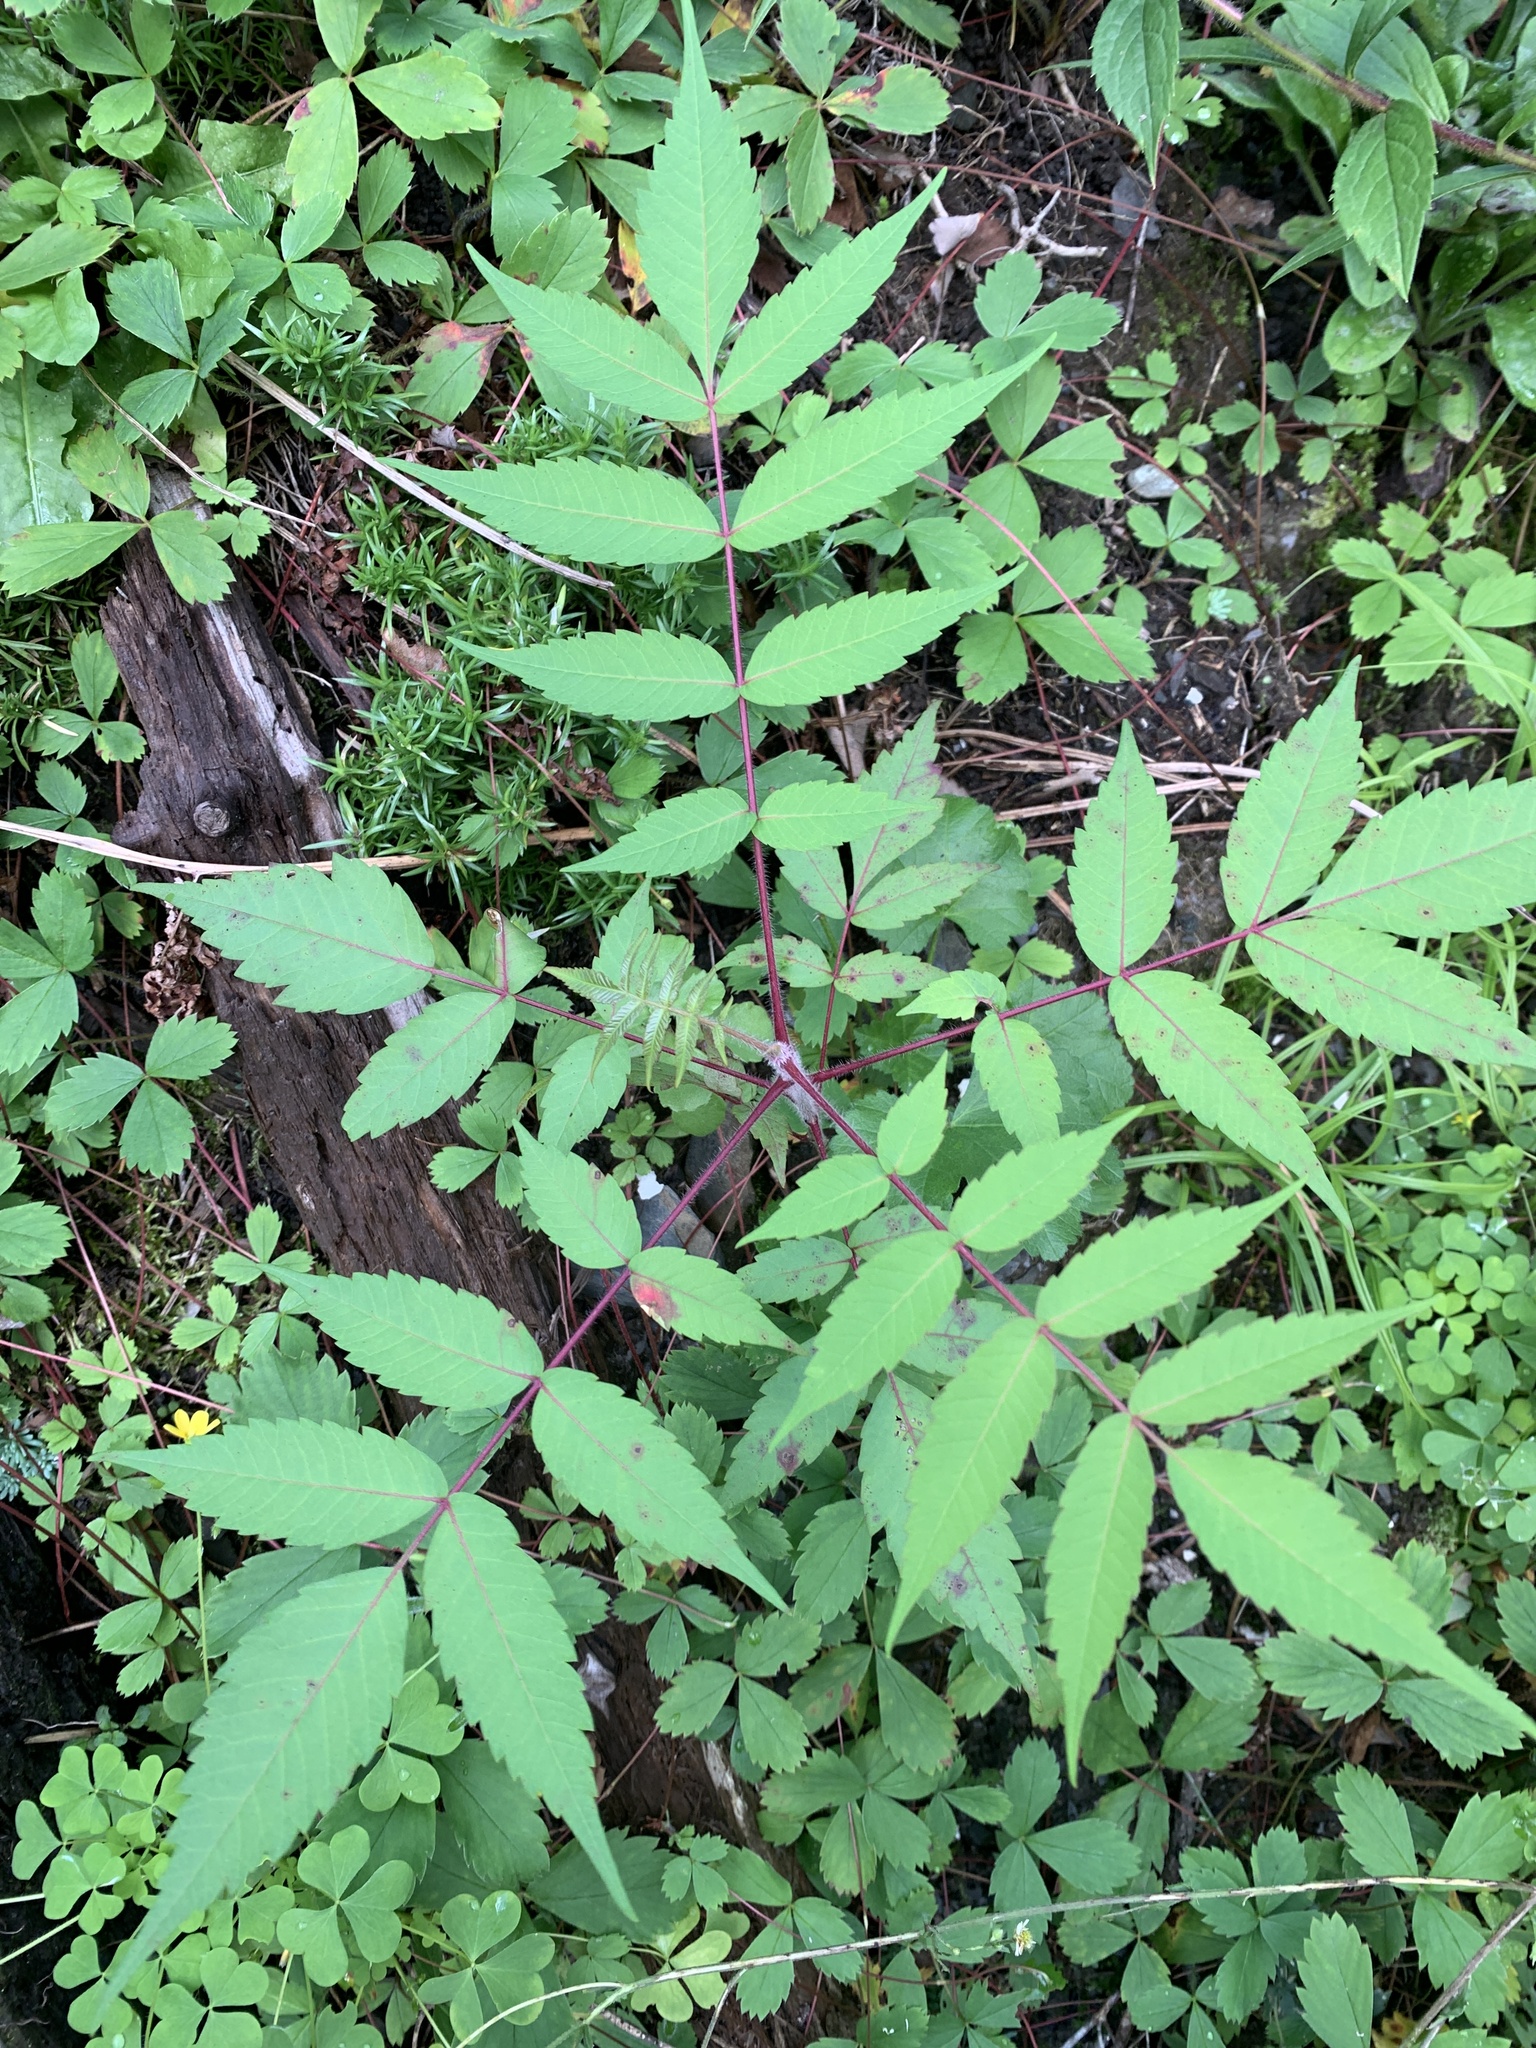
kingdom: Plantae
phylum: Tracheophyta
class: Magnoliopsida
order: Sapindales
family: Anacardiaceae
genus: Rhus
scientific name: Rhus typhina
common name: Staghorn sumac
